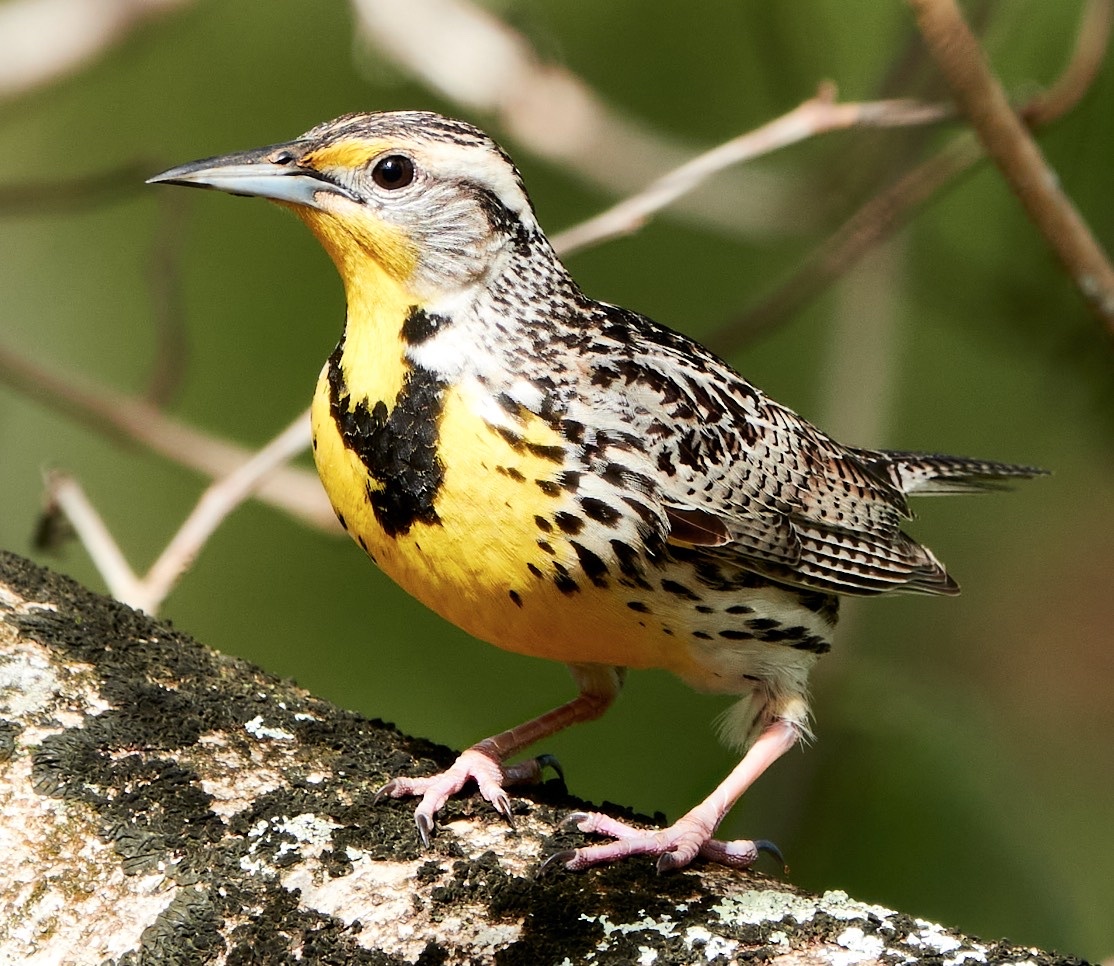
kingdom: Animalia
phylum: Chordata
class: Aves
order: Passeriformes
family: Icteridae
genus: Sturnella
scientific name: Sturnella neglecta
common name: Western meadowlark
